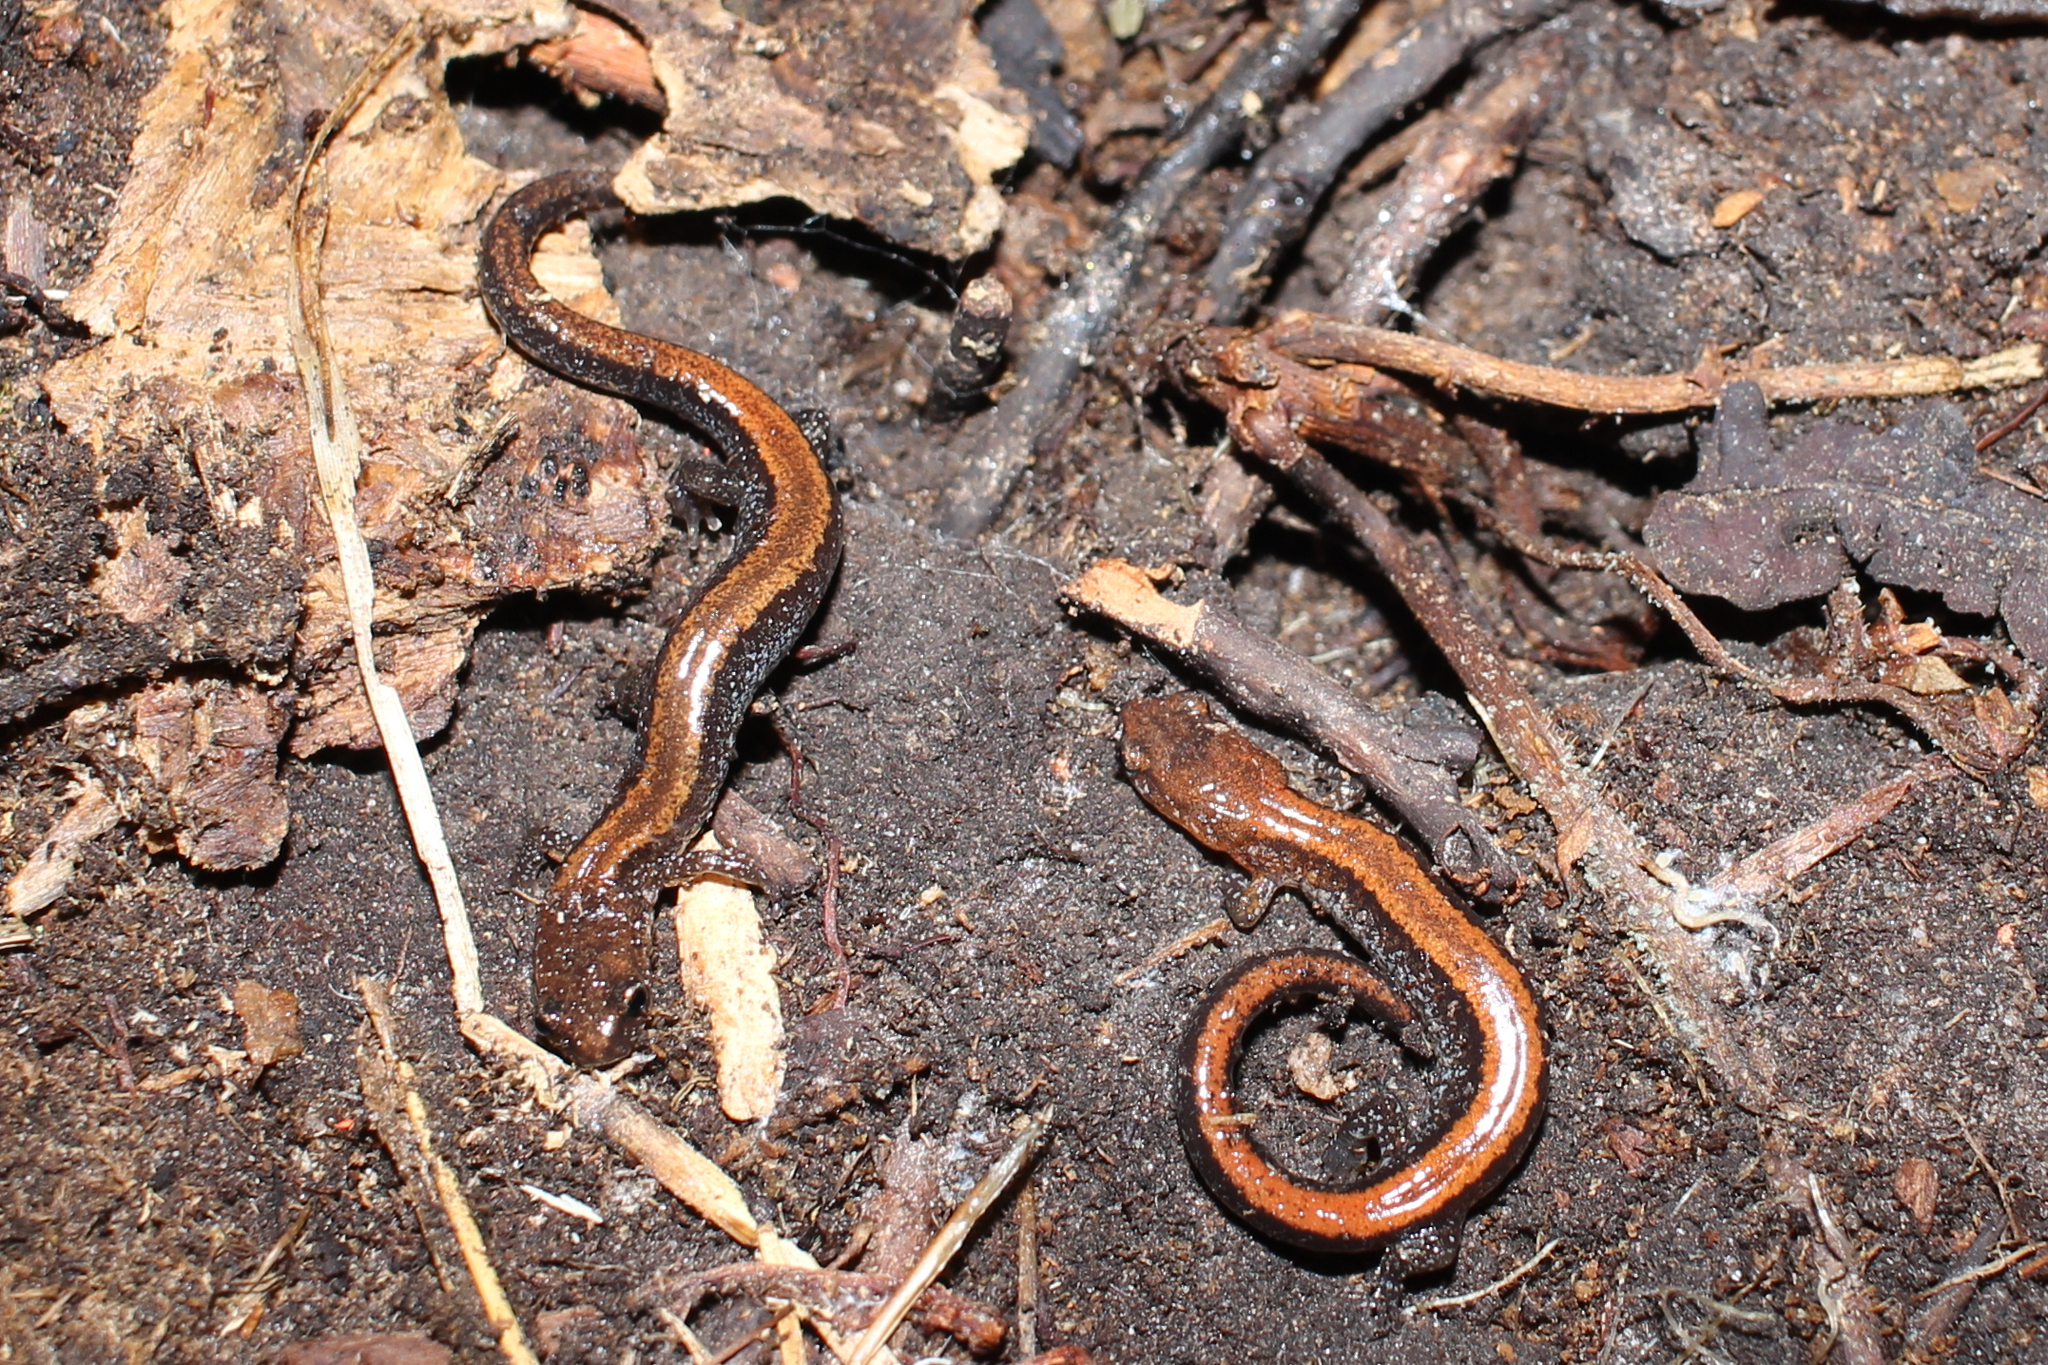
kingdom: Animalia
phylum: Chordata
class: Amphibia
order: Caudata
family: Plethodontidae
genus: Plethodon
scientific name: Plethodon cinereus
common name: Redback salamander
